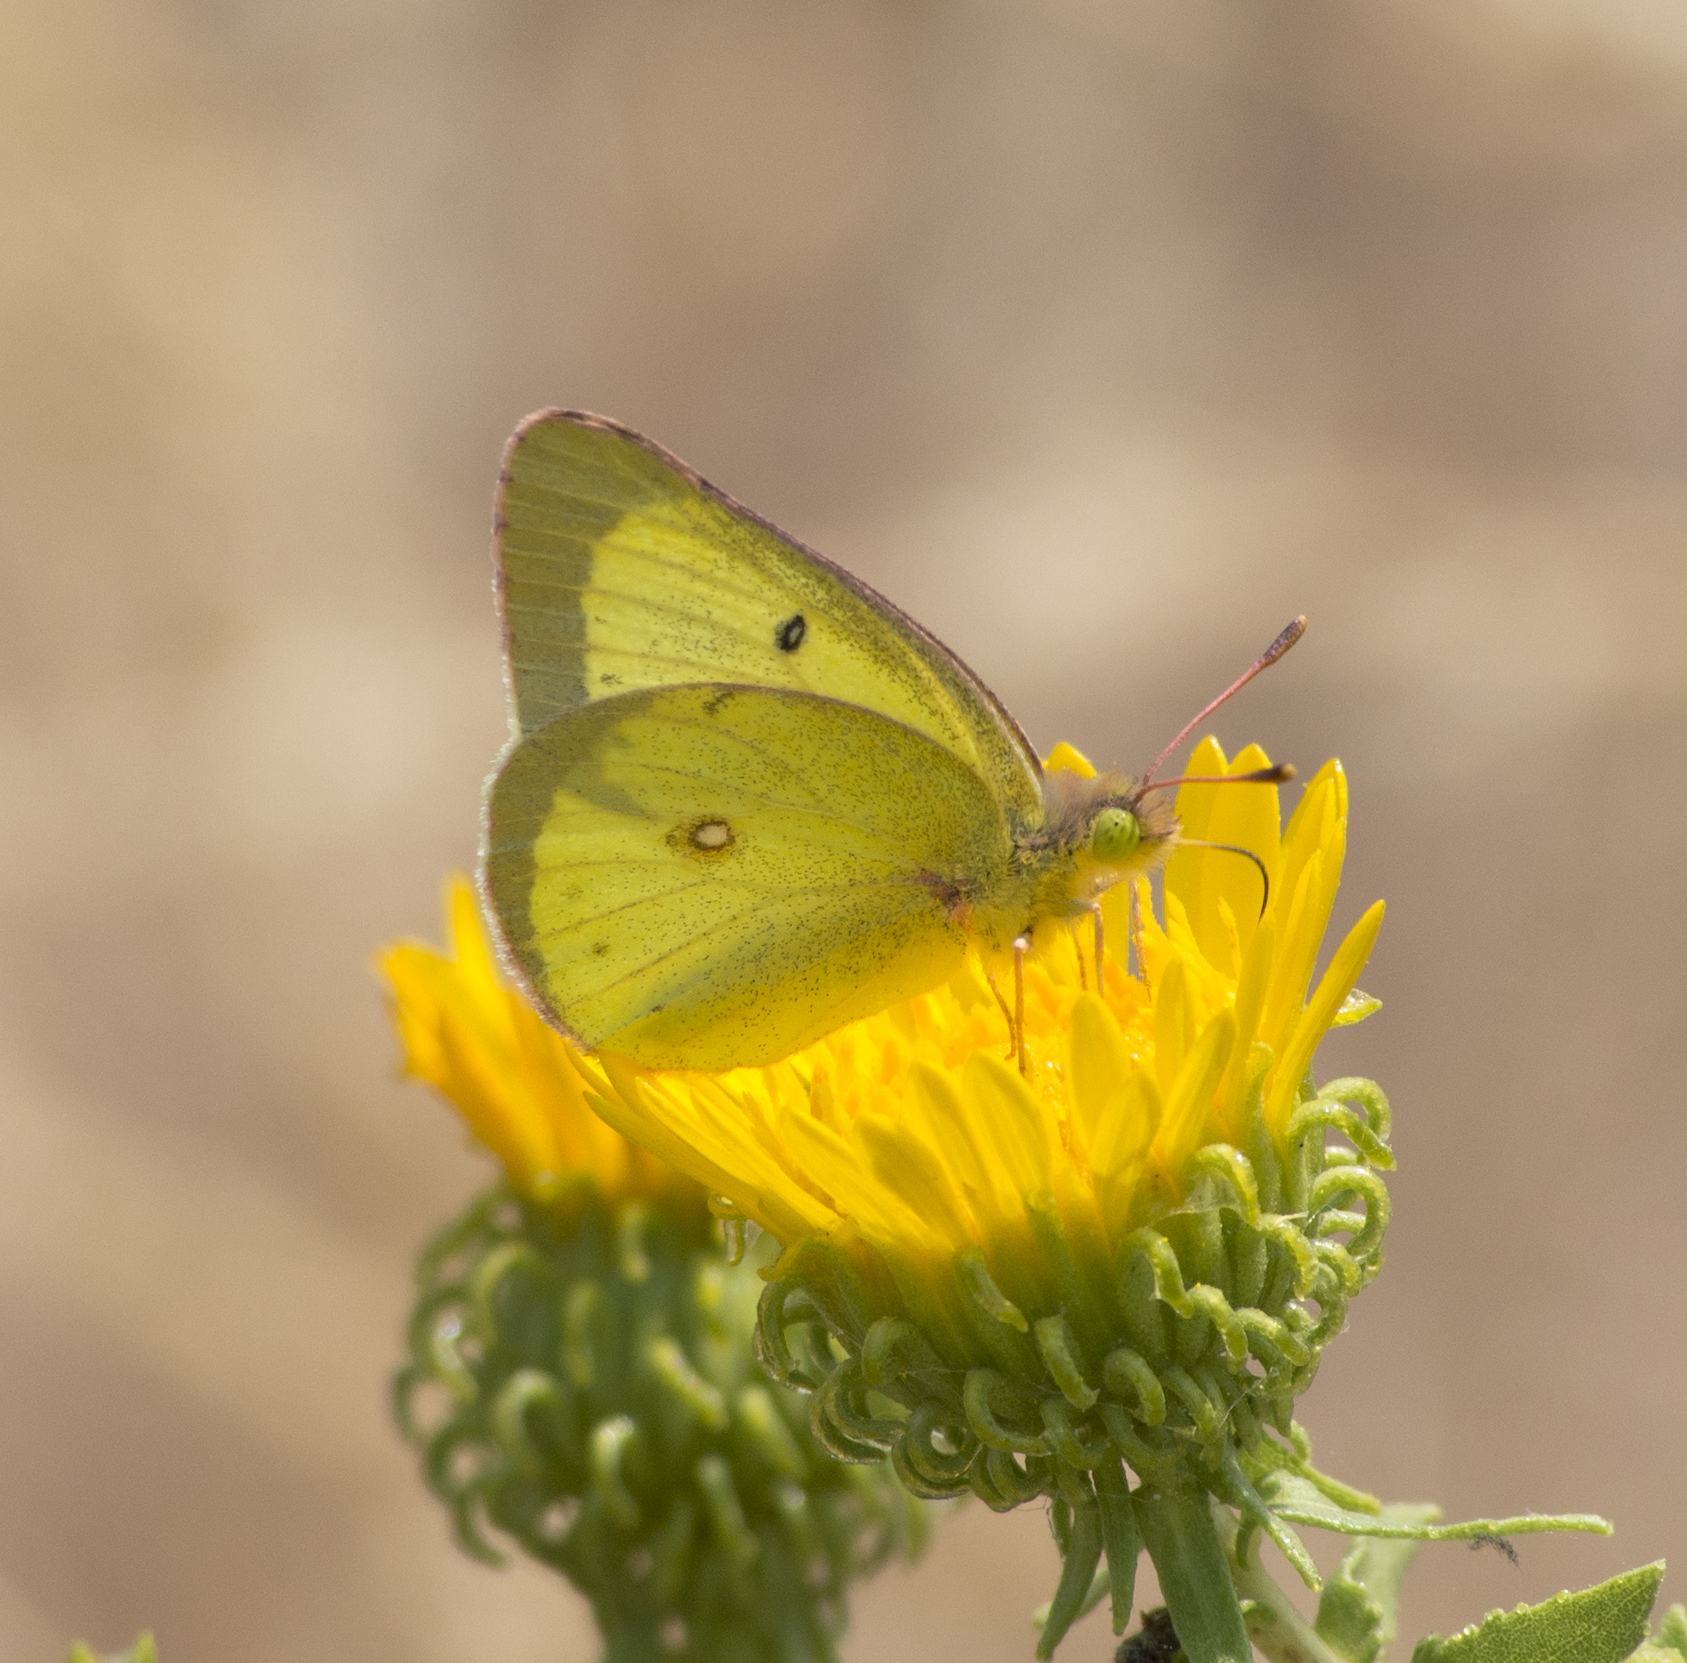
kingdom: Animalia
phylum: Arthropoda
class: Insecta
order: Lepidoptera
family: Pieridae
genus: Colias
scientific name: Colias philodice
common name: Clouded sulphur
